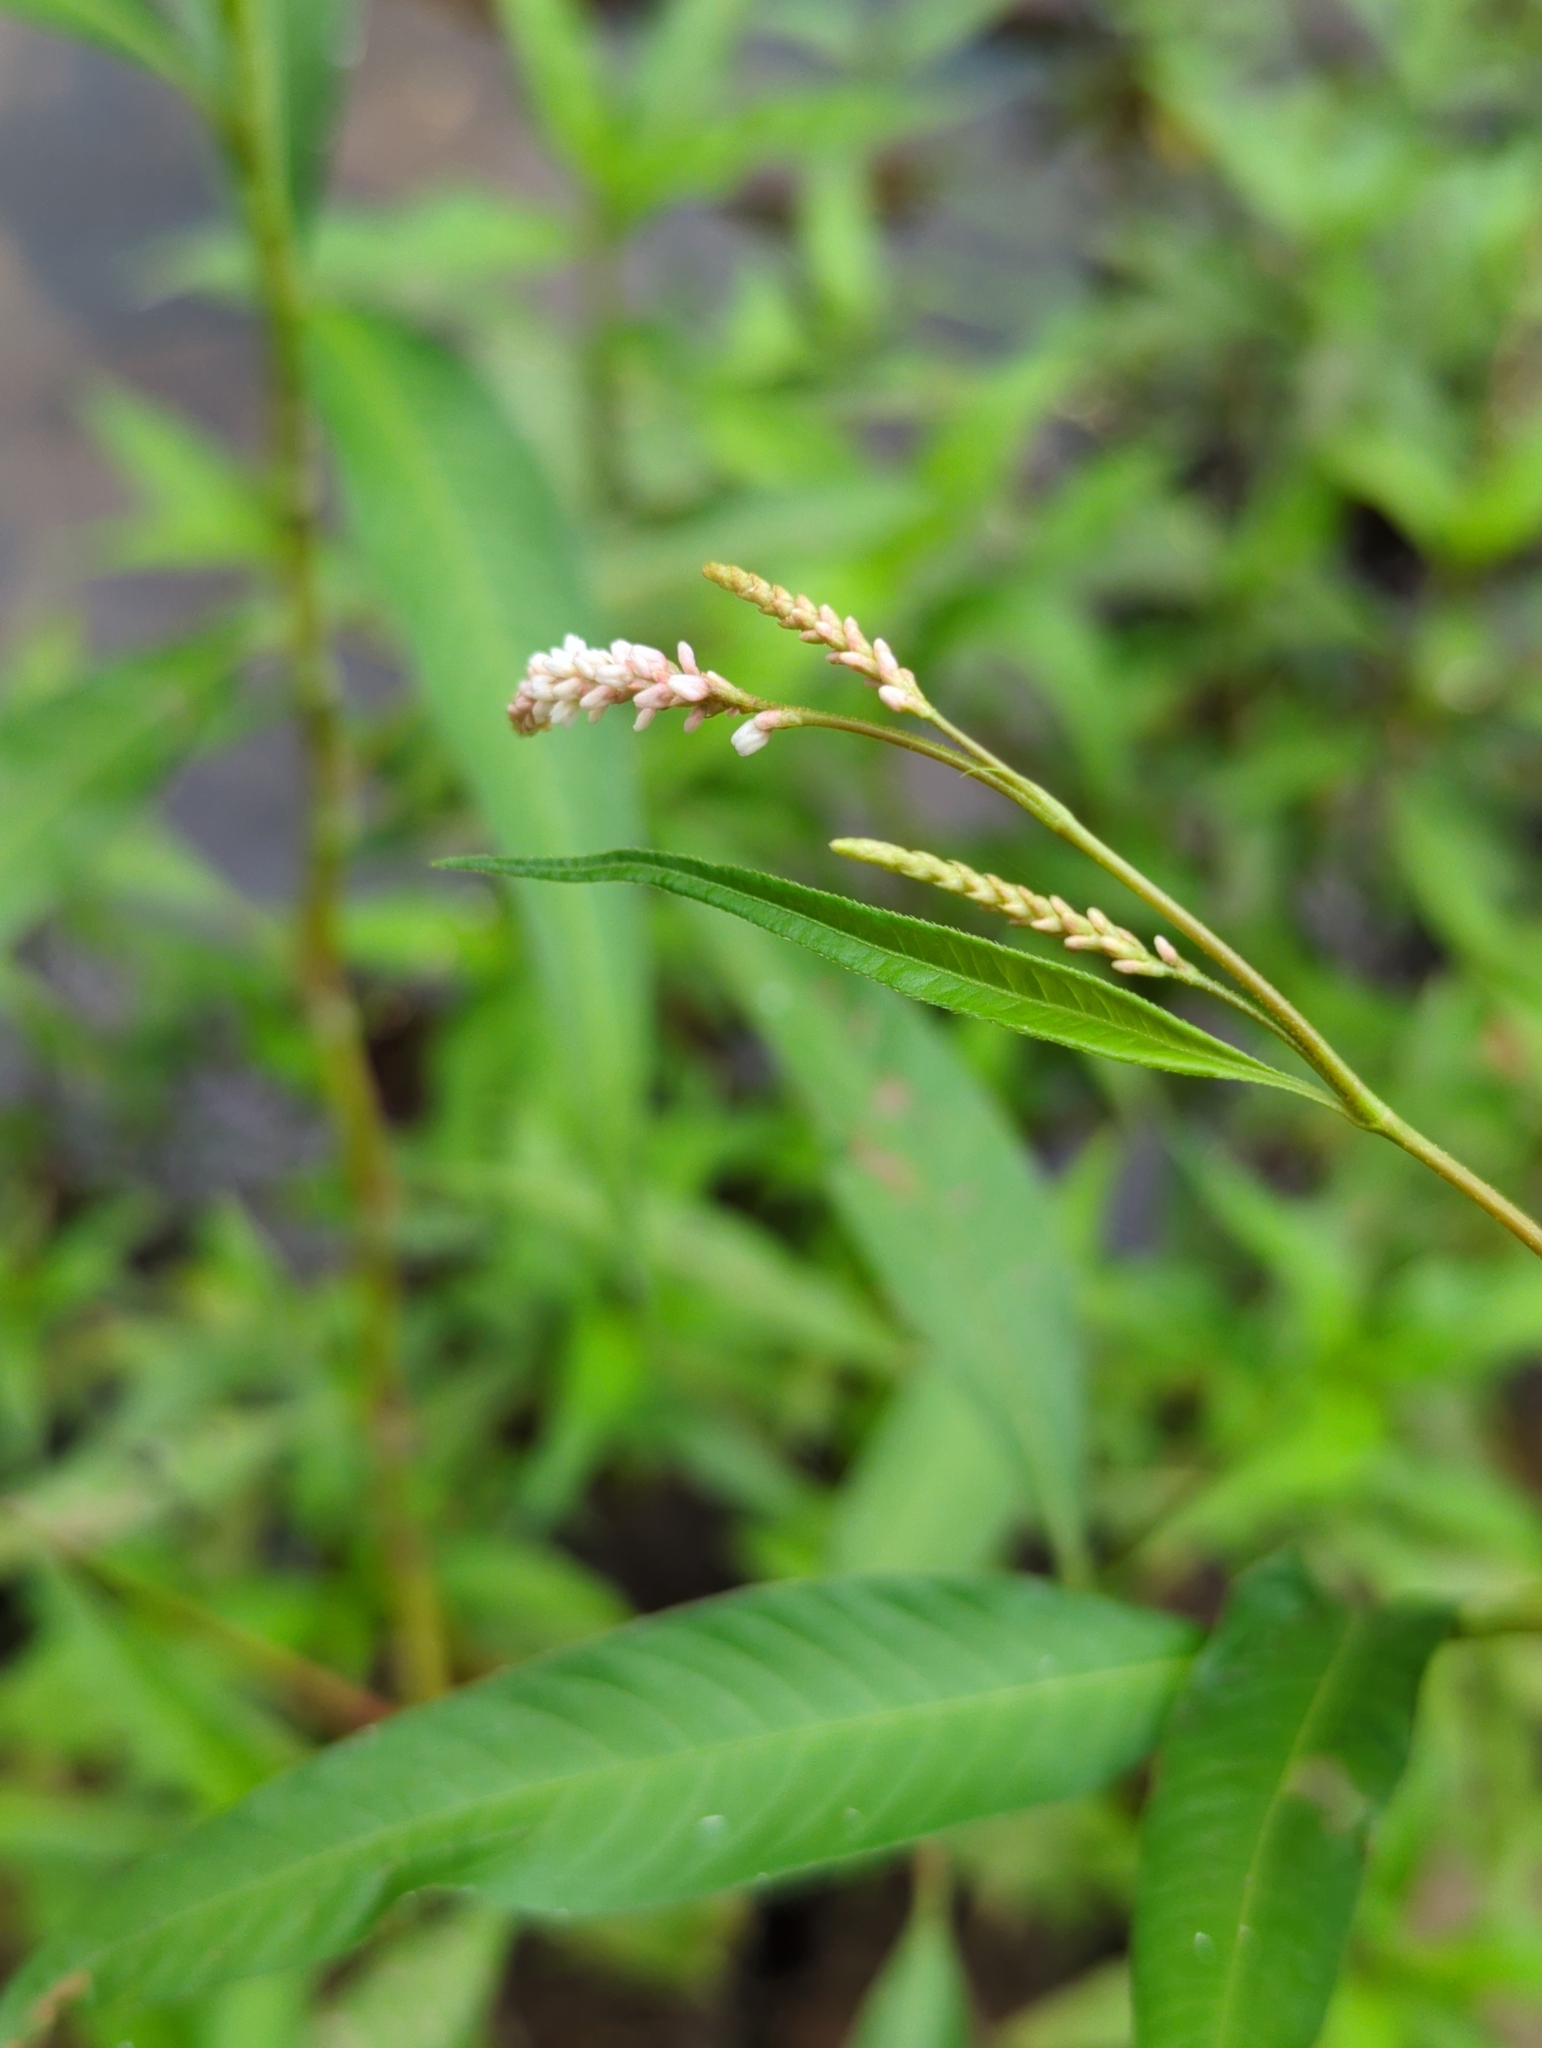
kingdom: Plantae
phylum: Tracheophyta
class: Magnoliopsida
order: Caryophyllales
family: Polygonaceae
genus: Persicaria
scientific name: Persicaria lapathifolia
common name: Curlytop knotweed
